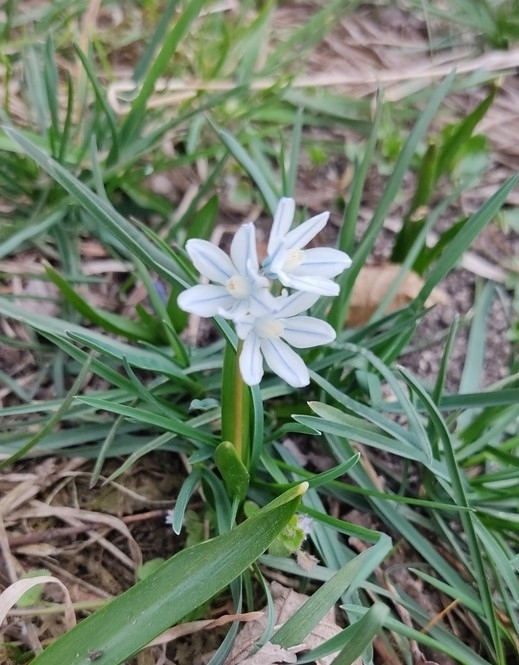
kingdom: Plantae
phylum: Tracheophyta
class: Liliopsida
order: Asparagales
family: Asparagaceae
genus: Puschkinia
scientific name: Puschkinia scilloides
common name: Striped squill
